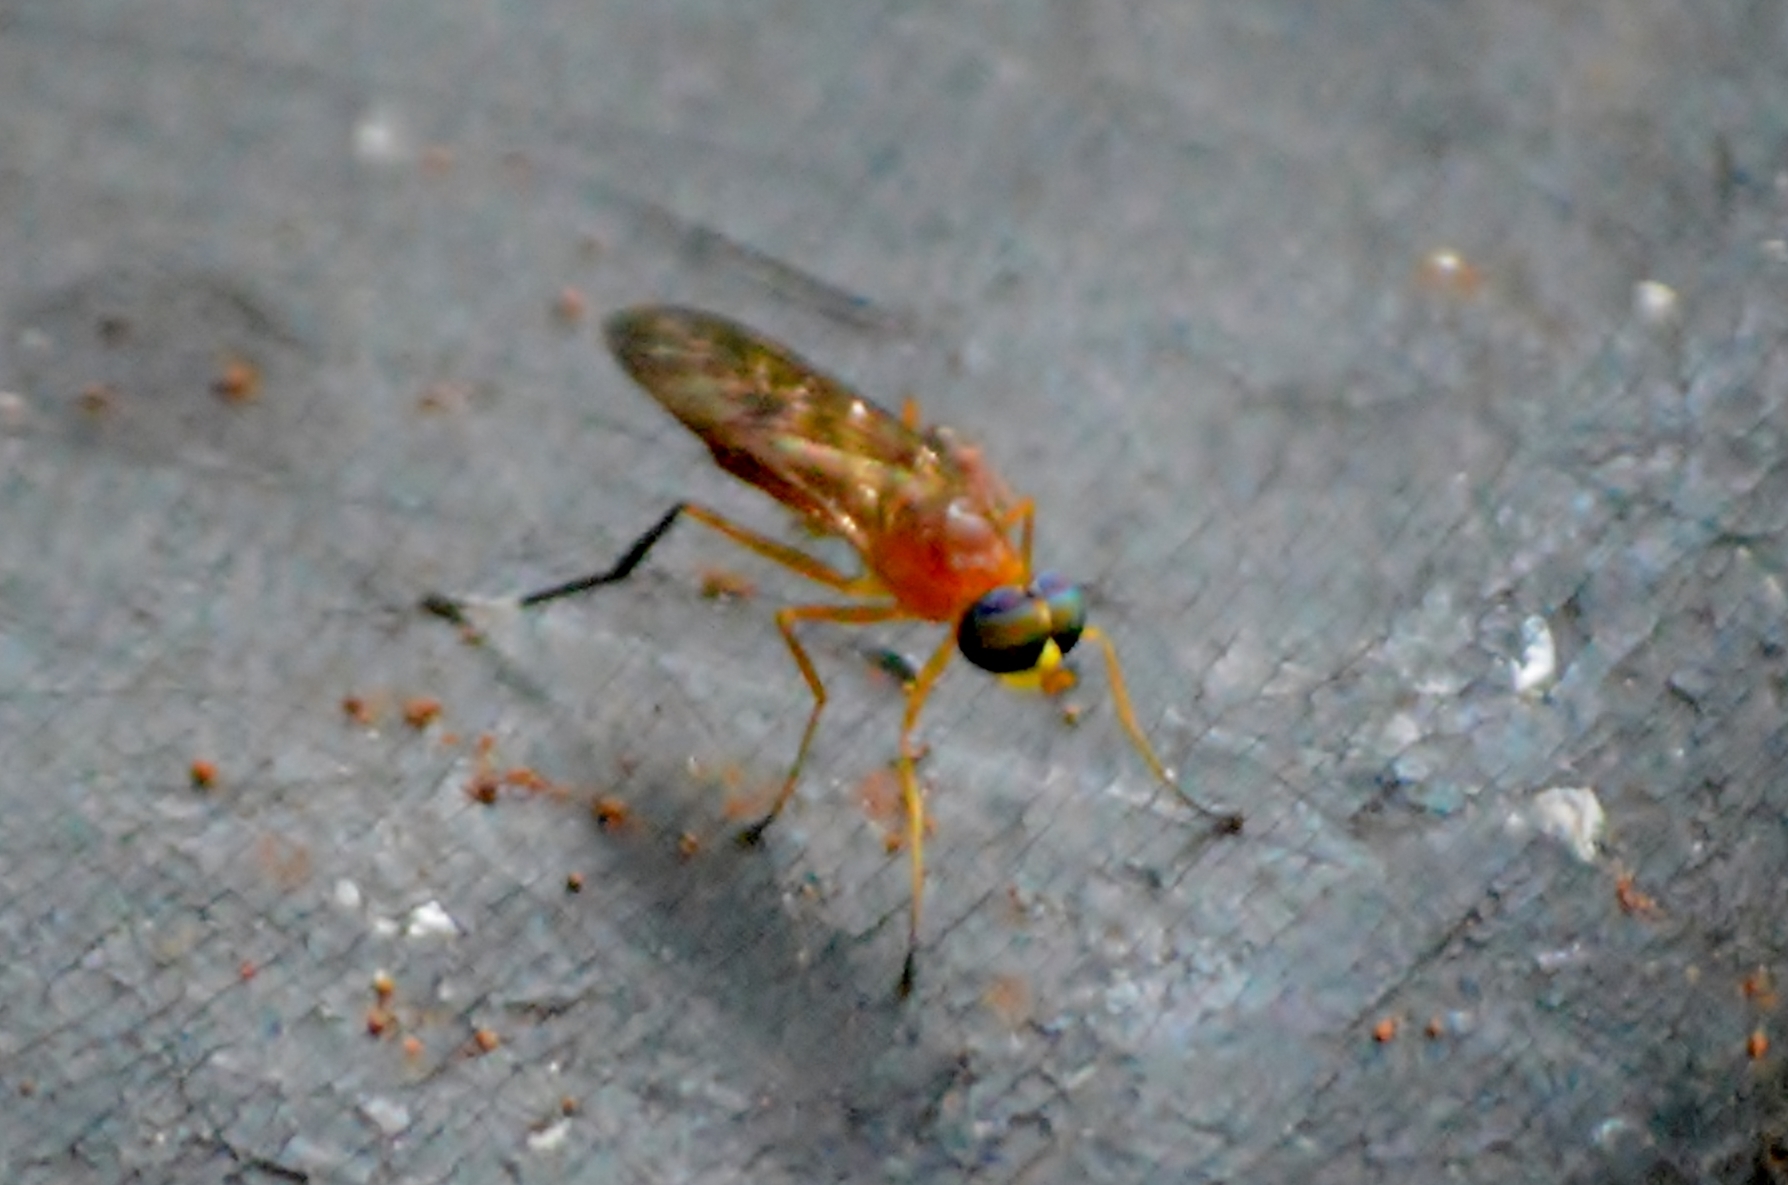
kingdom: Animalia
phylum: Arthropoda
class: Insecta
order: Diptera
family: Stratiomyidae
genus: Ptecticus
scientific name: Ptecticus testaceus
